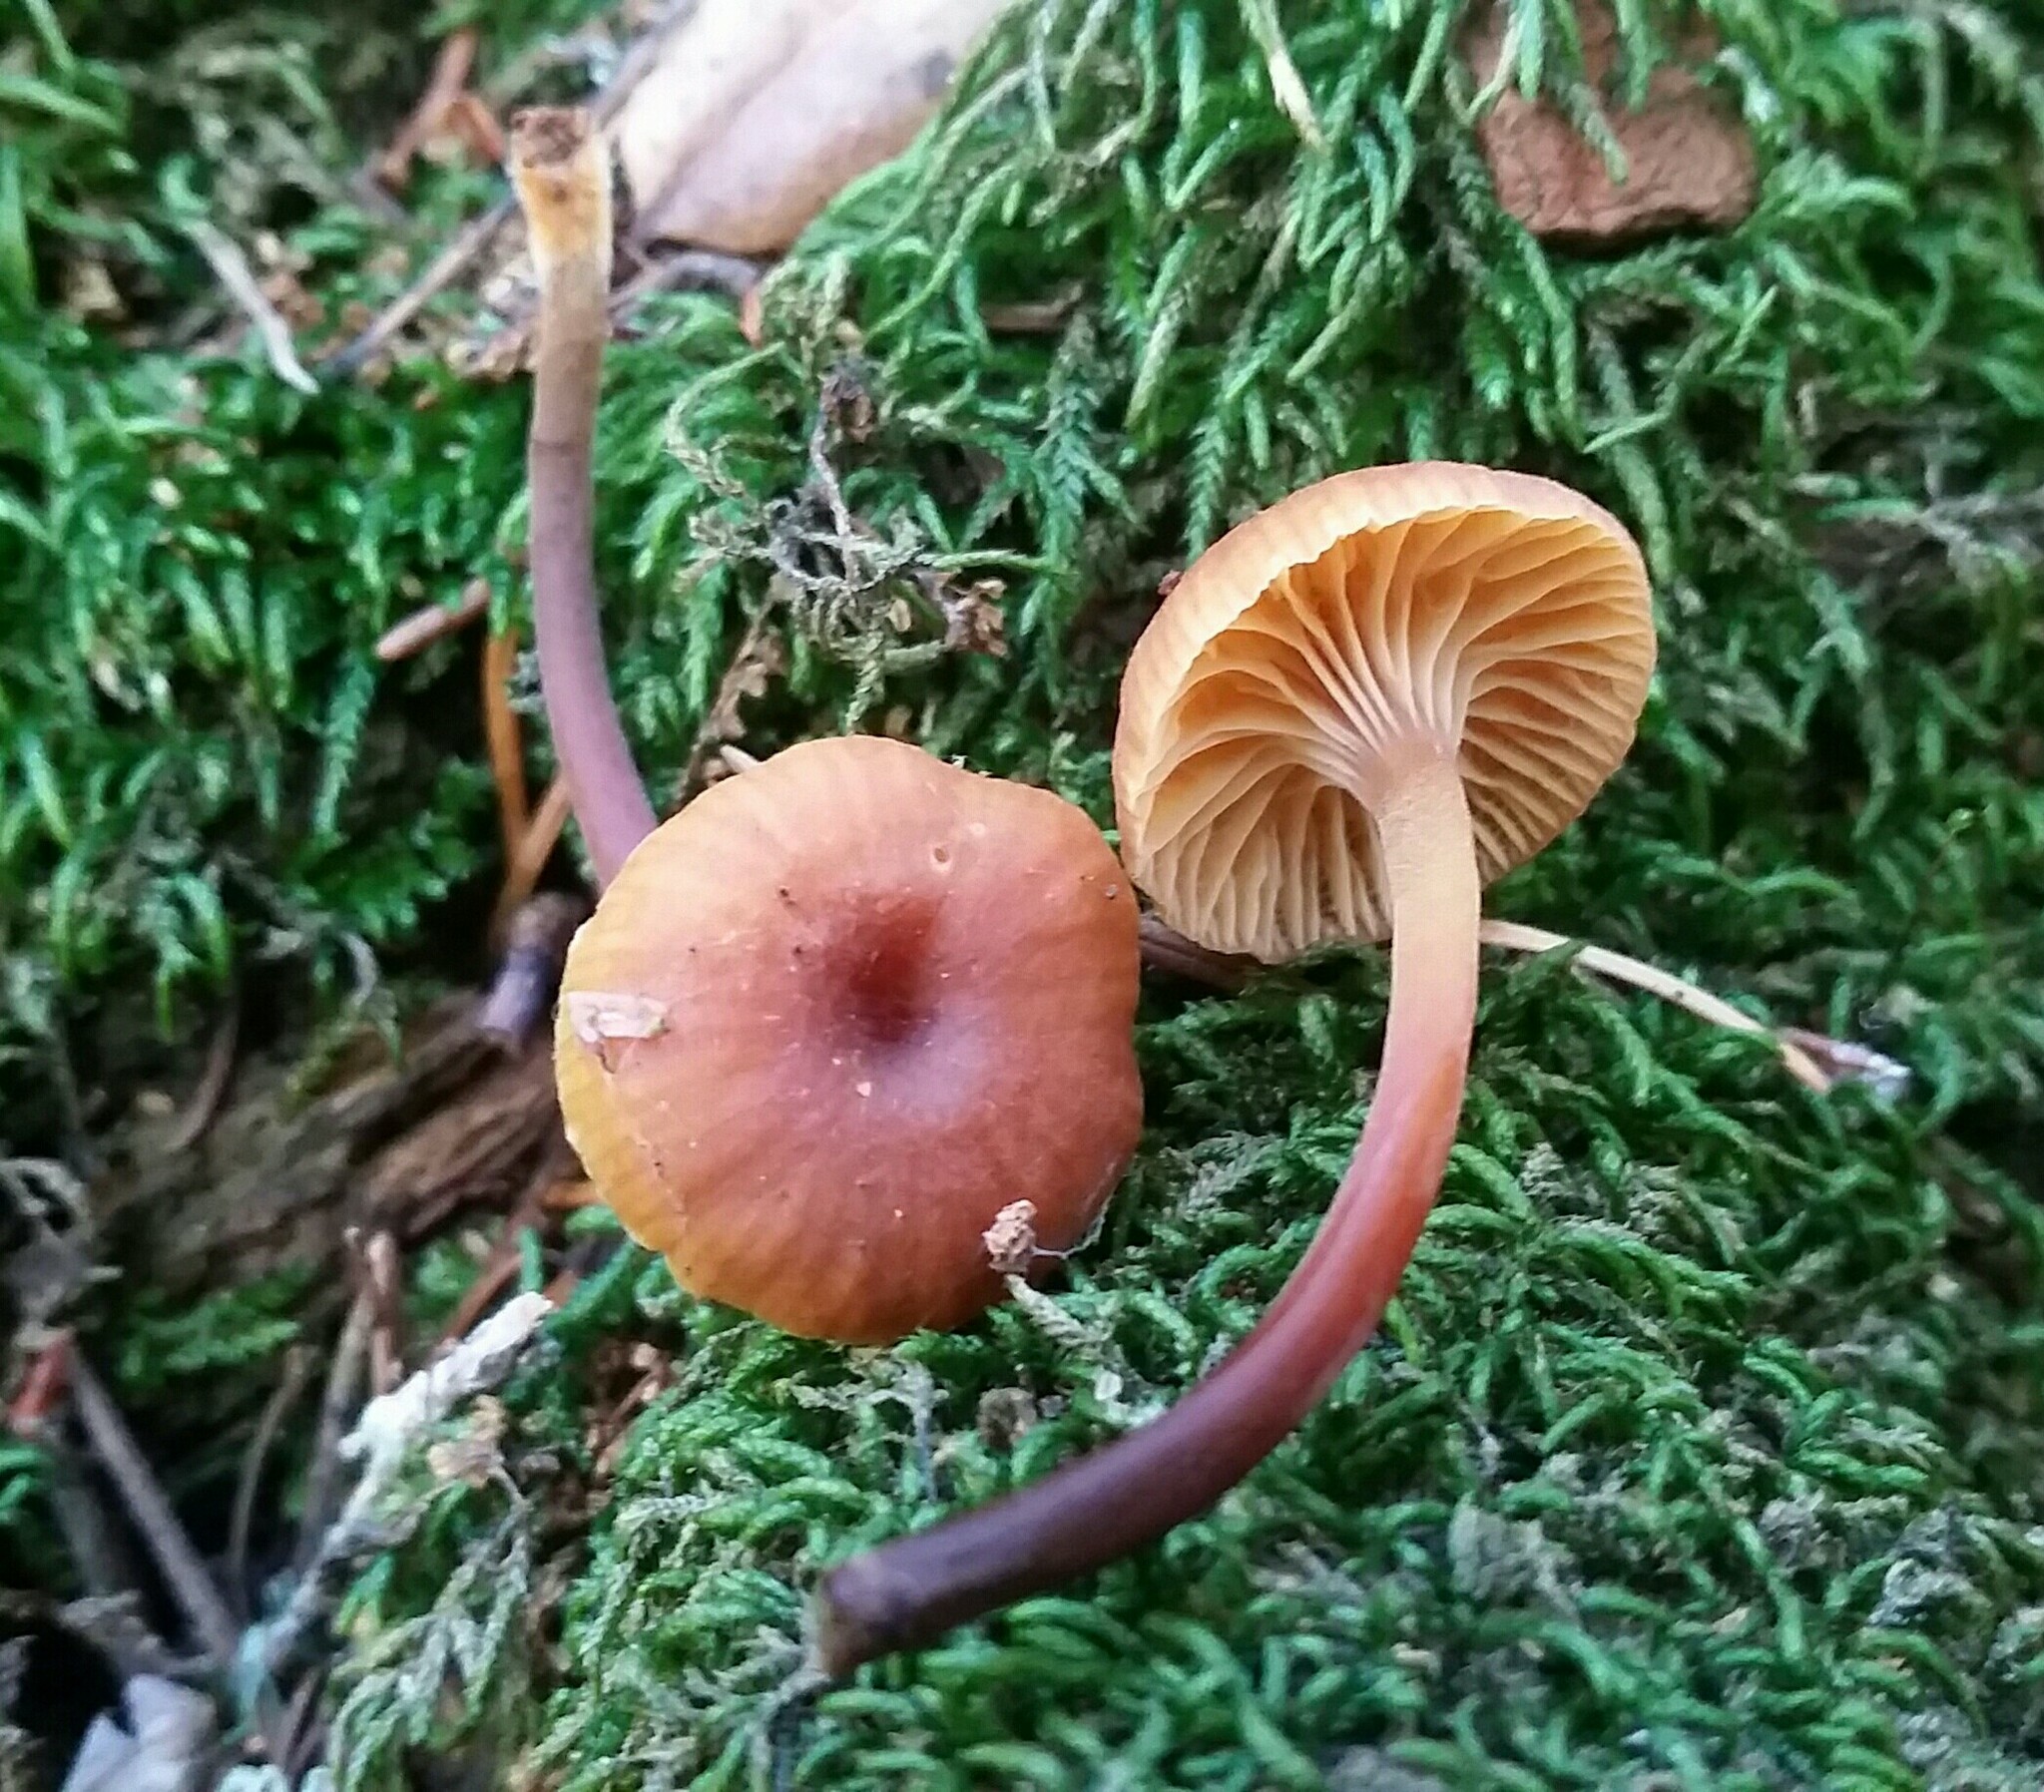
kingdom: Fungi
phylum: Basidiomycota
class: Agaricomycetes
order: Agaricales
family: Mycenaceae
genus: Xeromphalina
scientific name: Xeromphalina campanella
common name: Pinewood gingertail
